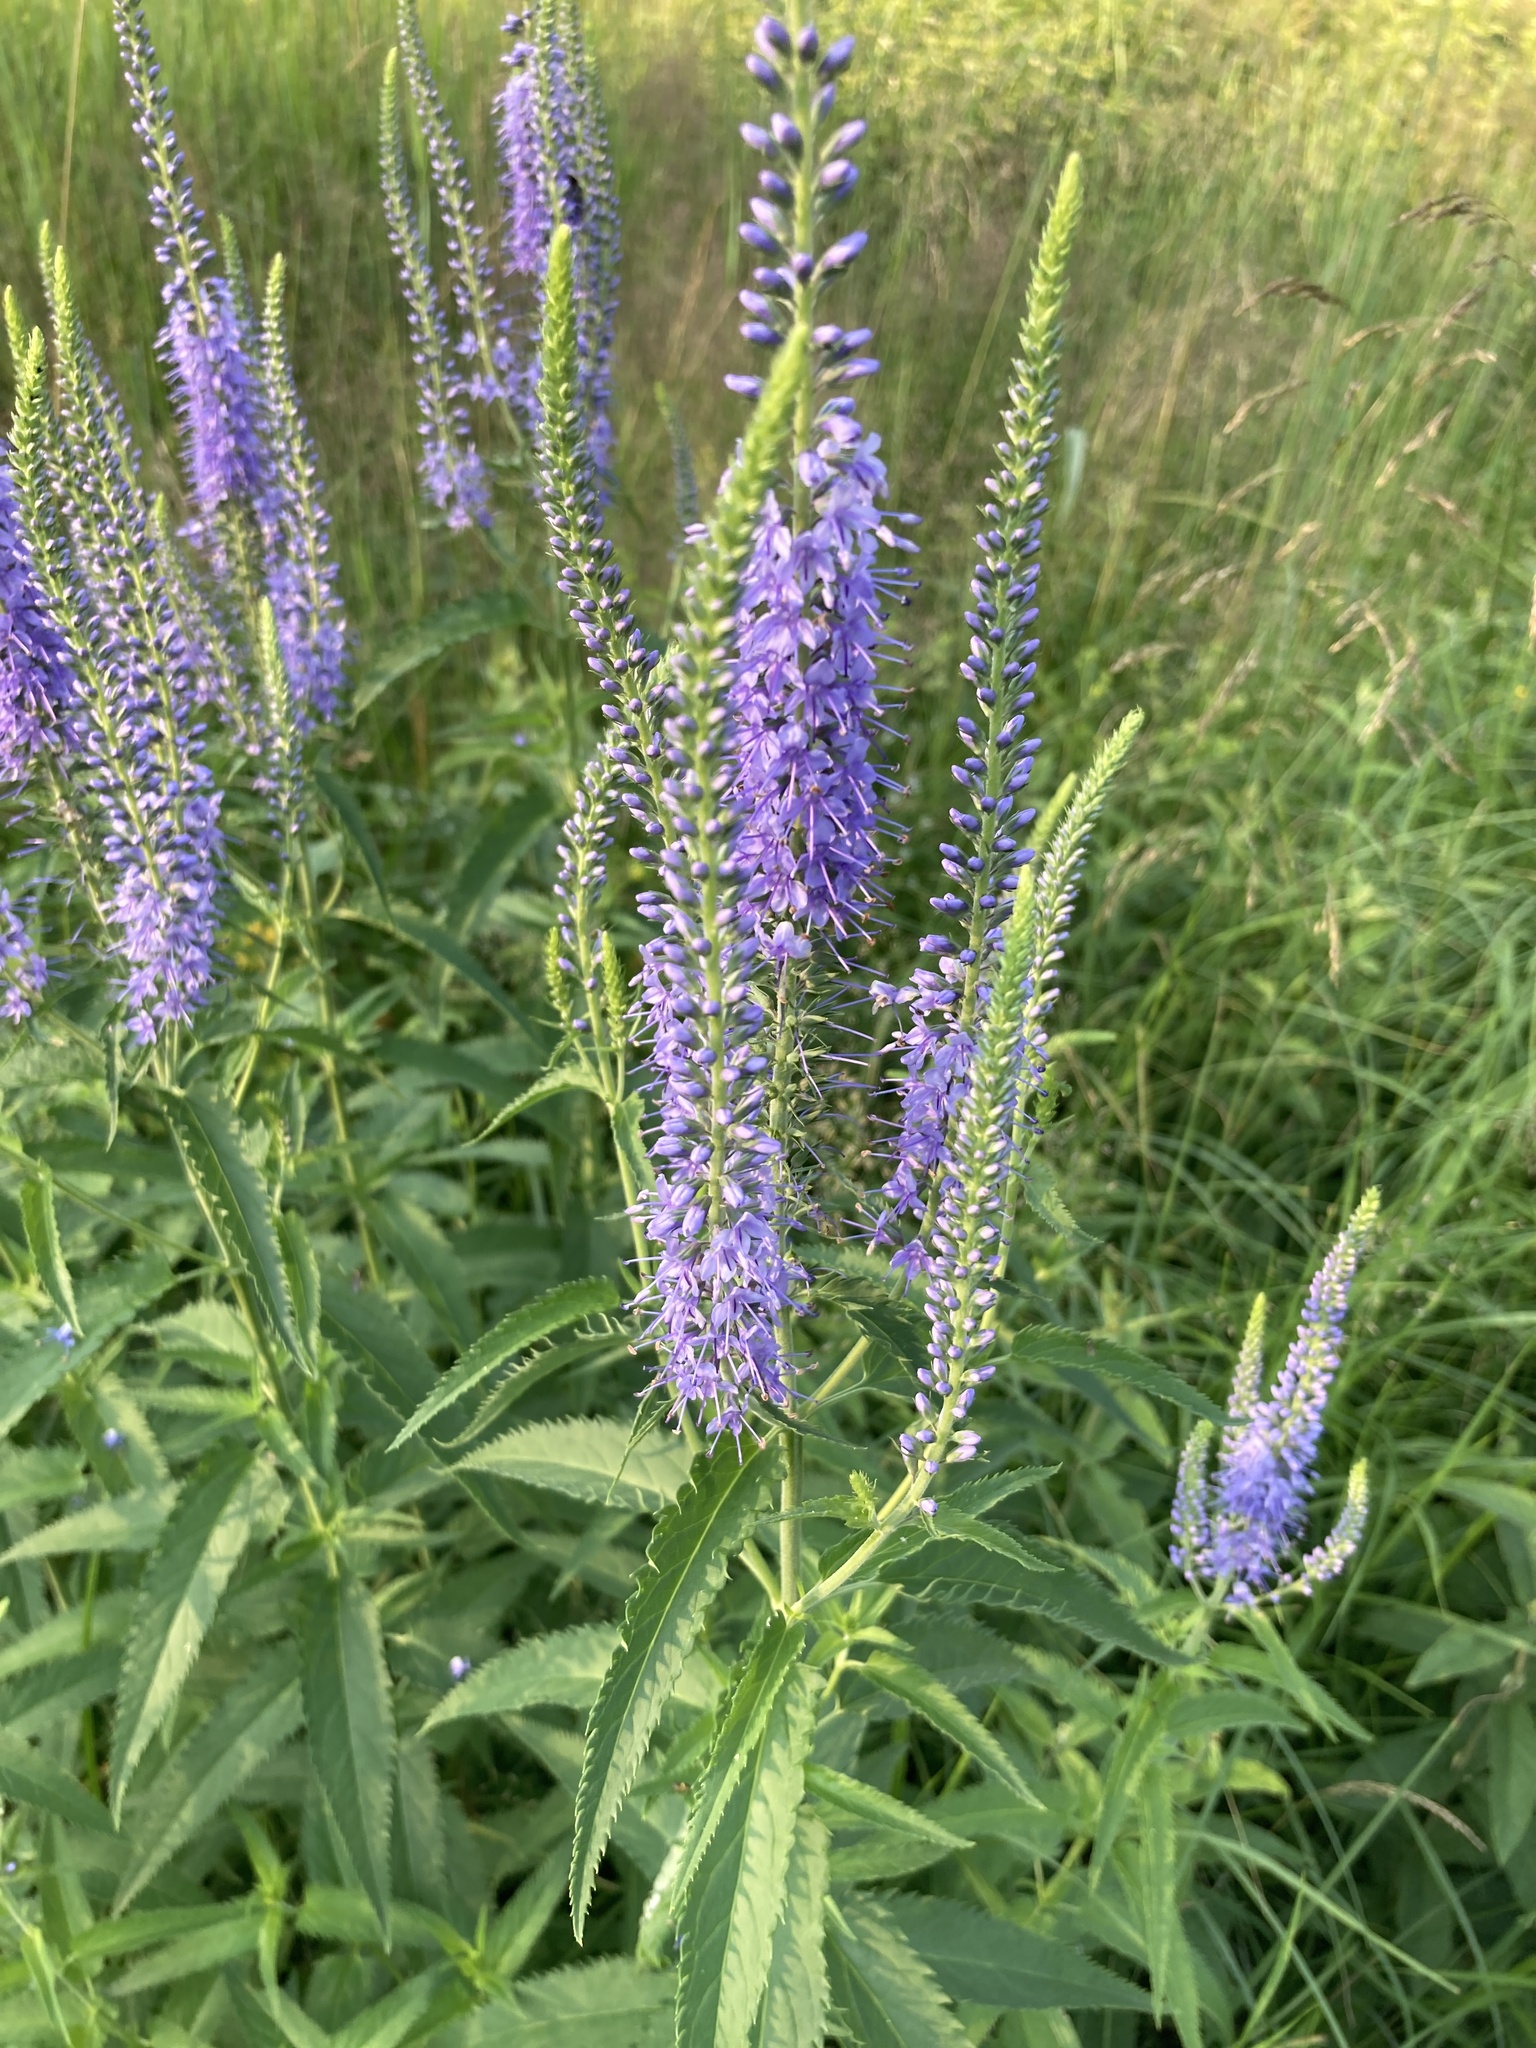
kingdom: Plantae
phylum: Tracheophyta
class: Magnoliopsida
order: Lamiales
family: Plantaginaceae
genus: Veronica
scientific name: Veronica longifolia
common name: Garden speedwell
